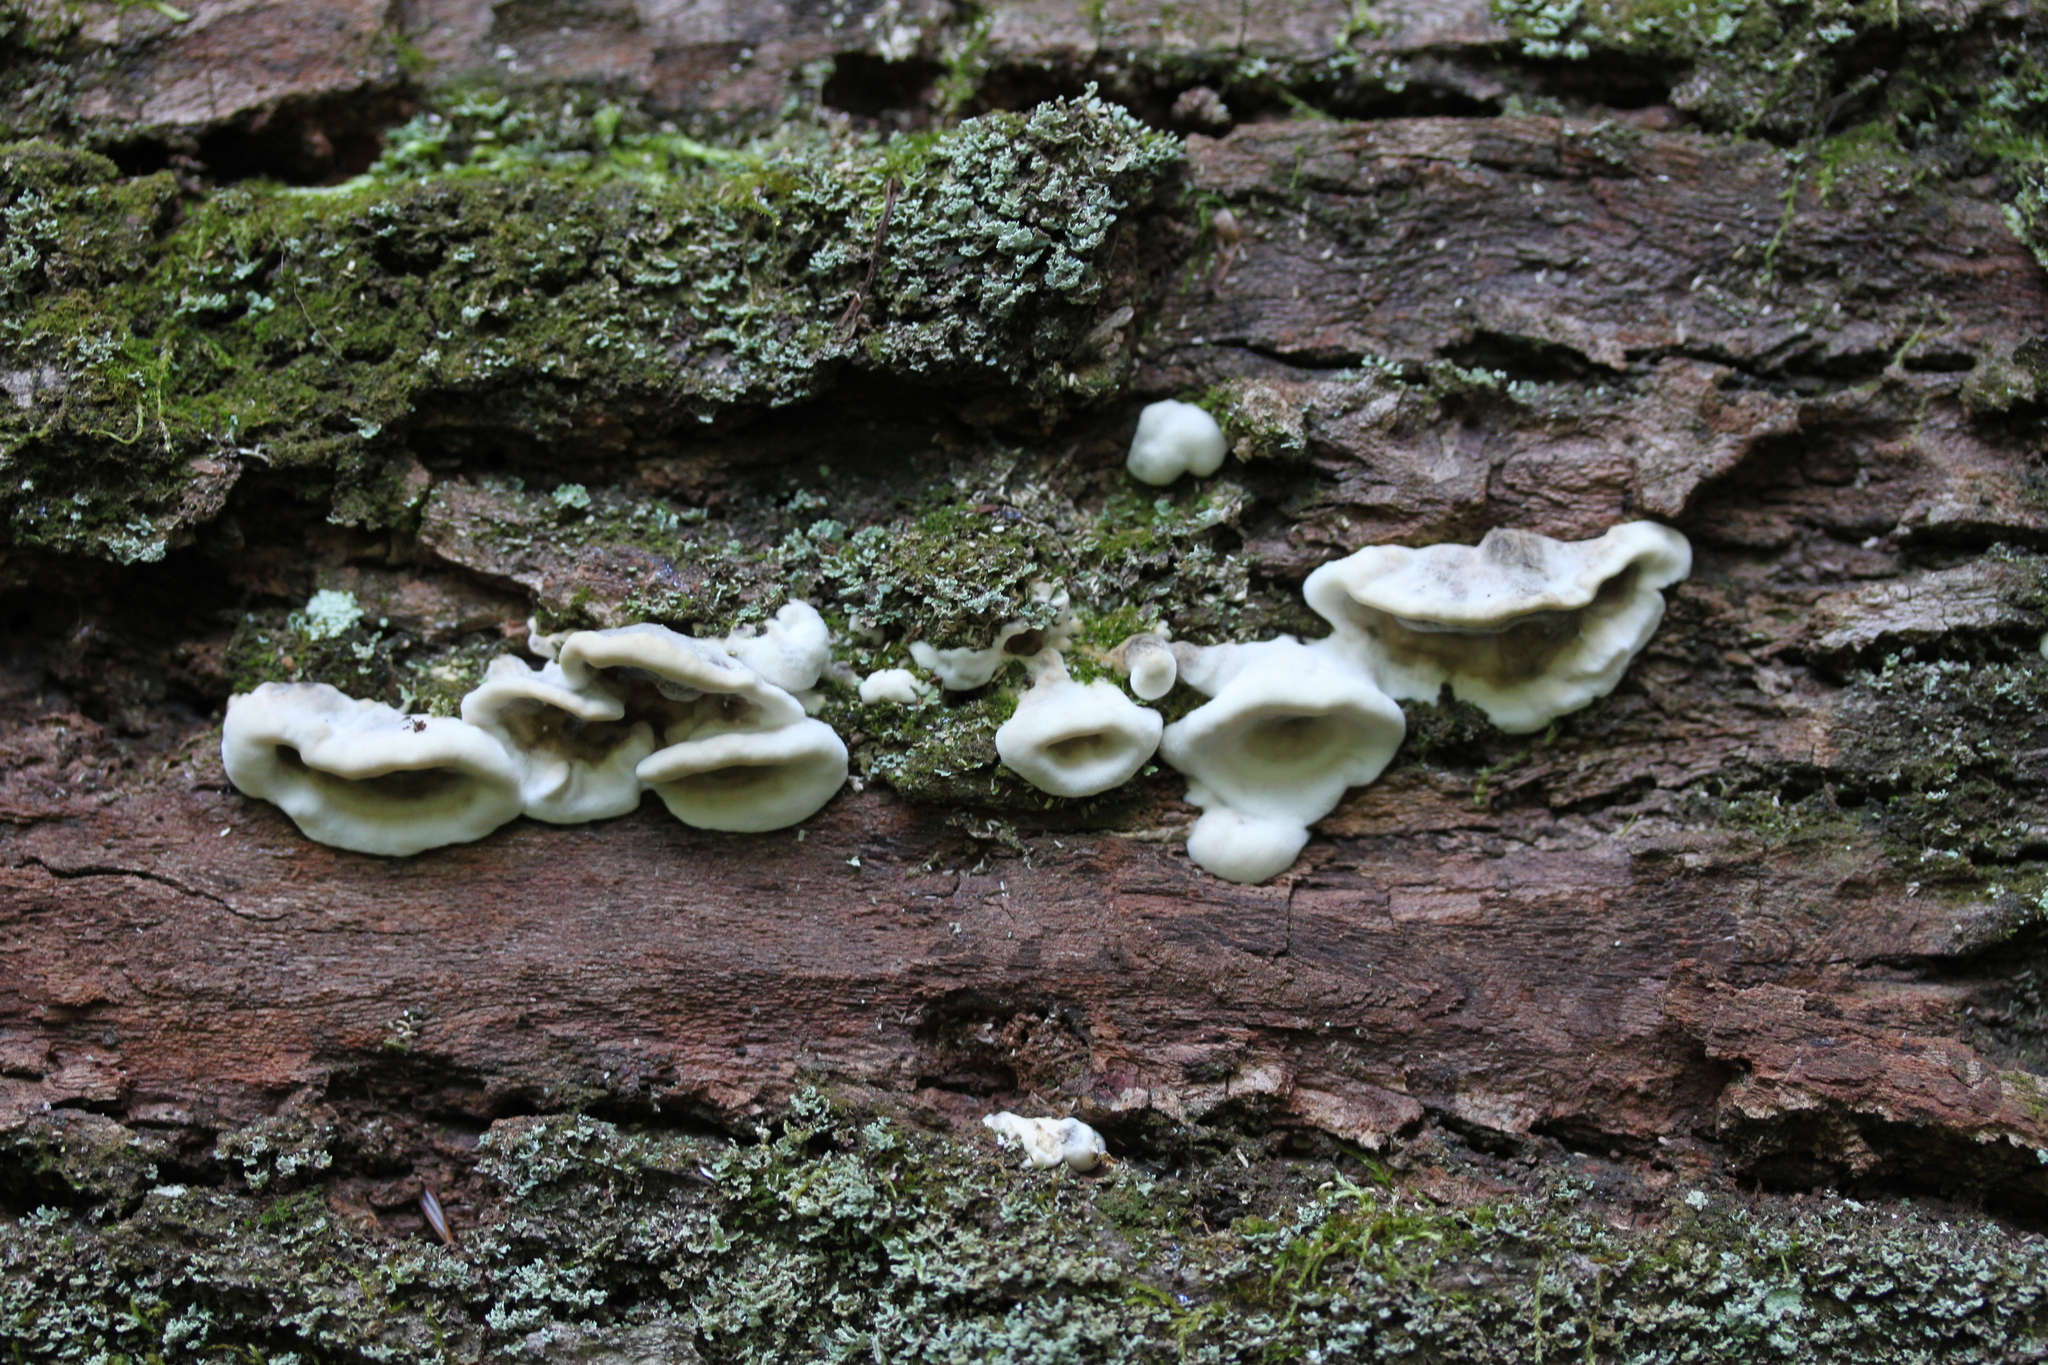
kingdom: Fungi
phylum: Basidiomycota
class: Agaricomycetes
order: Polyporales
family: Phanerochaetaceae
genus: Bjerkandera
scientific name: Bjerkandera fumosa
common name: Big smoky bracket
